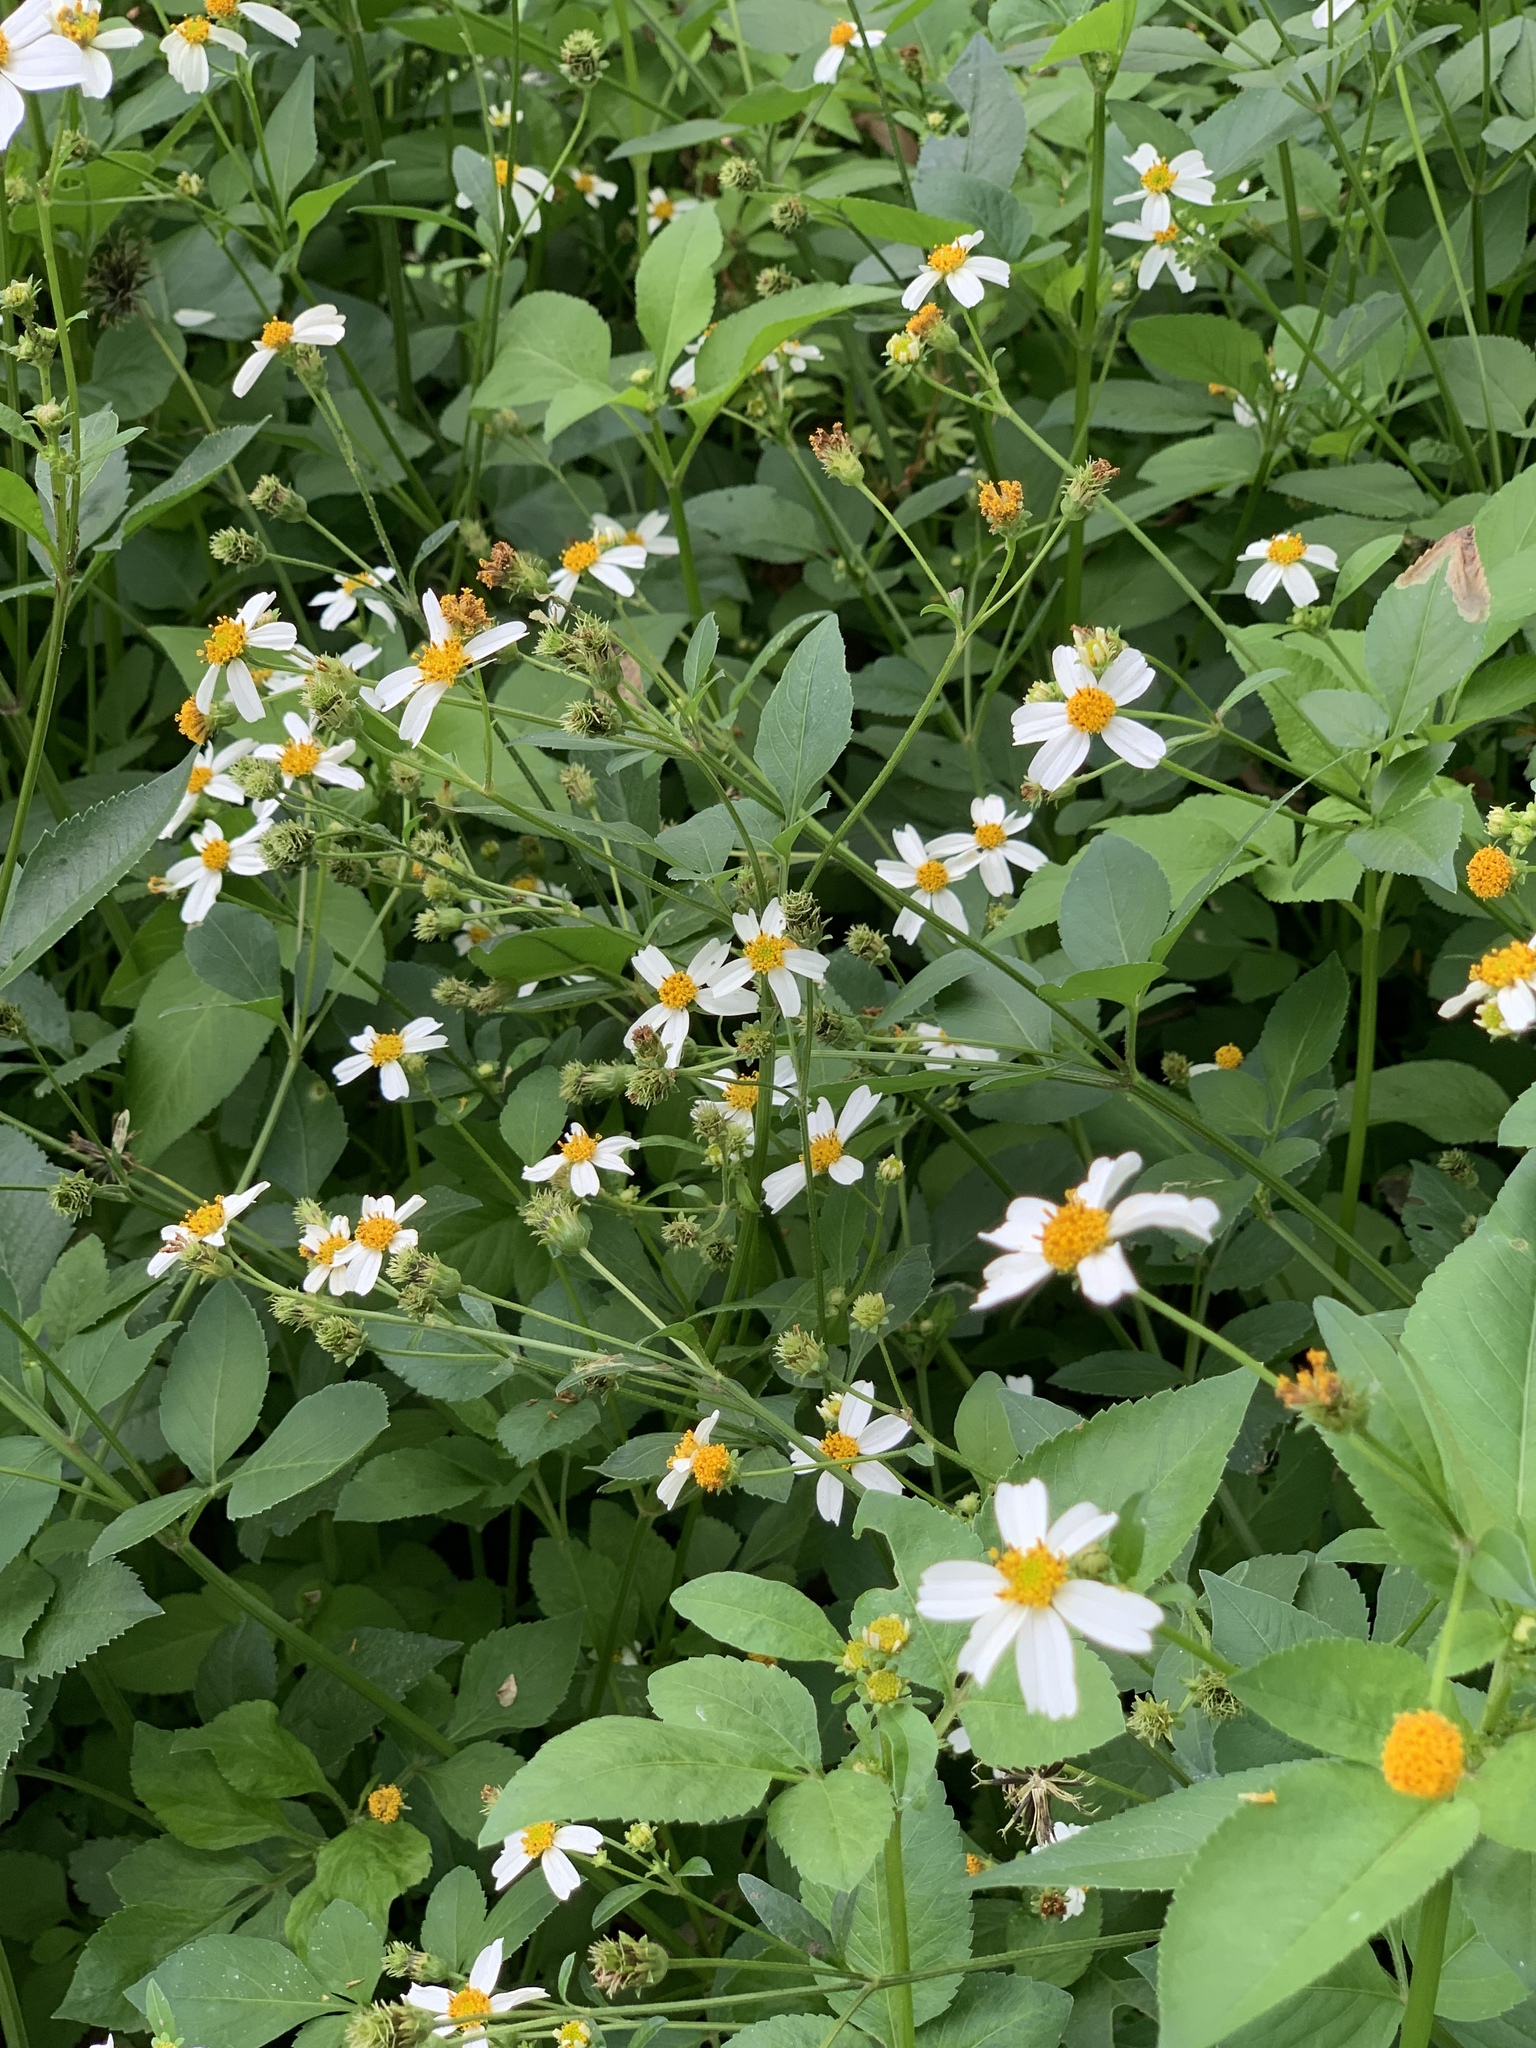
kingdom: Plantae
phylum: Tracheophyta
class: Magnoliopsida
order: Asterales
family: Asteraceae
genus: Bidens
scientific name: Bidens alba
